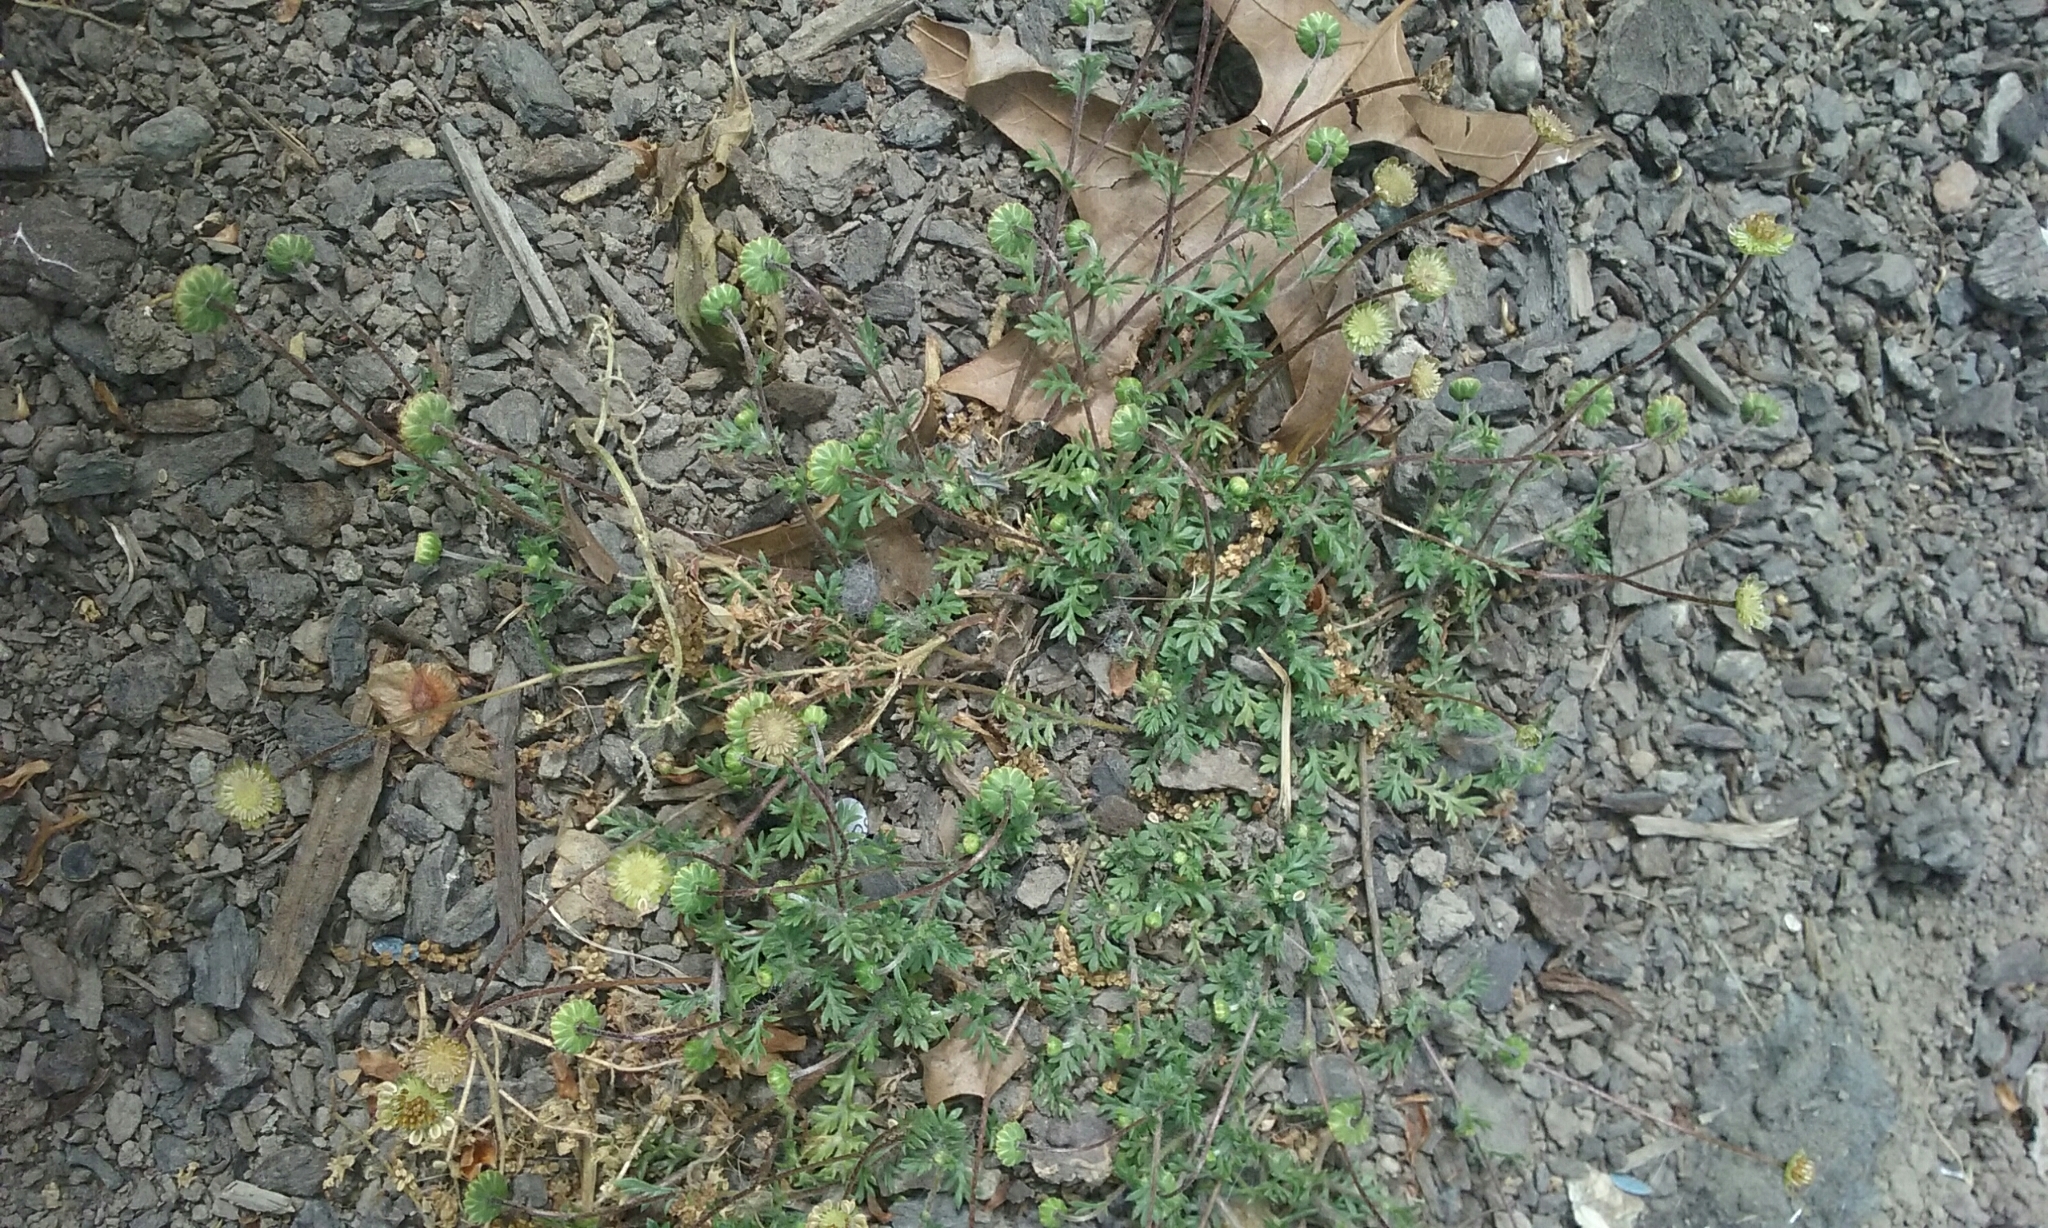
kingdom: Plantae
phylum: Tracheophyta
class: Magnoliopsida
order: Asterales
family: Asteraceae
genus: Cotula
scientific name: Cotula australis
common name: Australian waterbuttons
